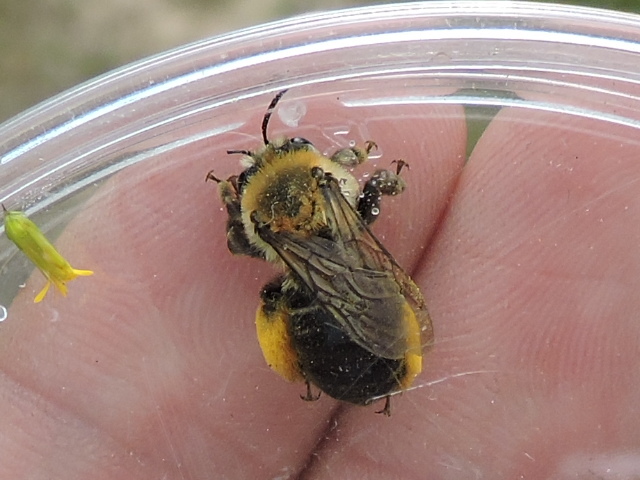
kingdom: Animalia
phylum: Arthropoda
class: Insecta
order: Hymenoptera
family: Apidae
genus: Melissodes
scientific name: Melissodes dentiventris
